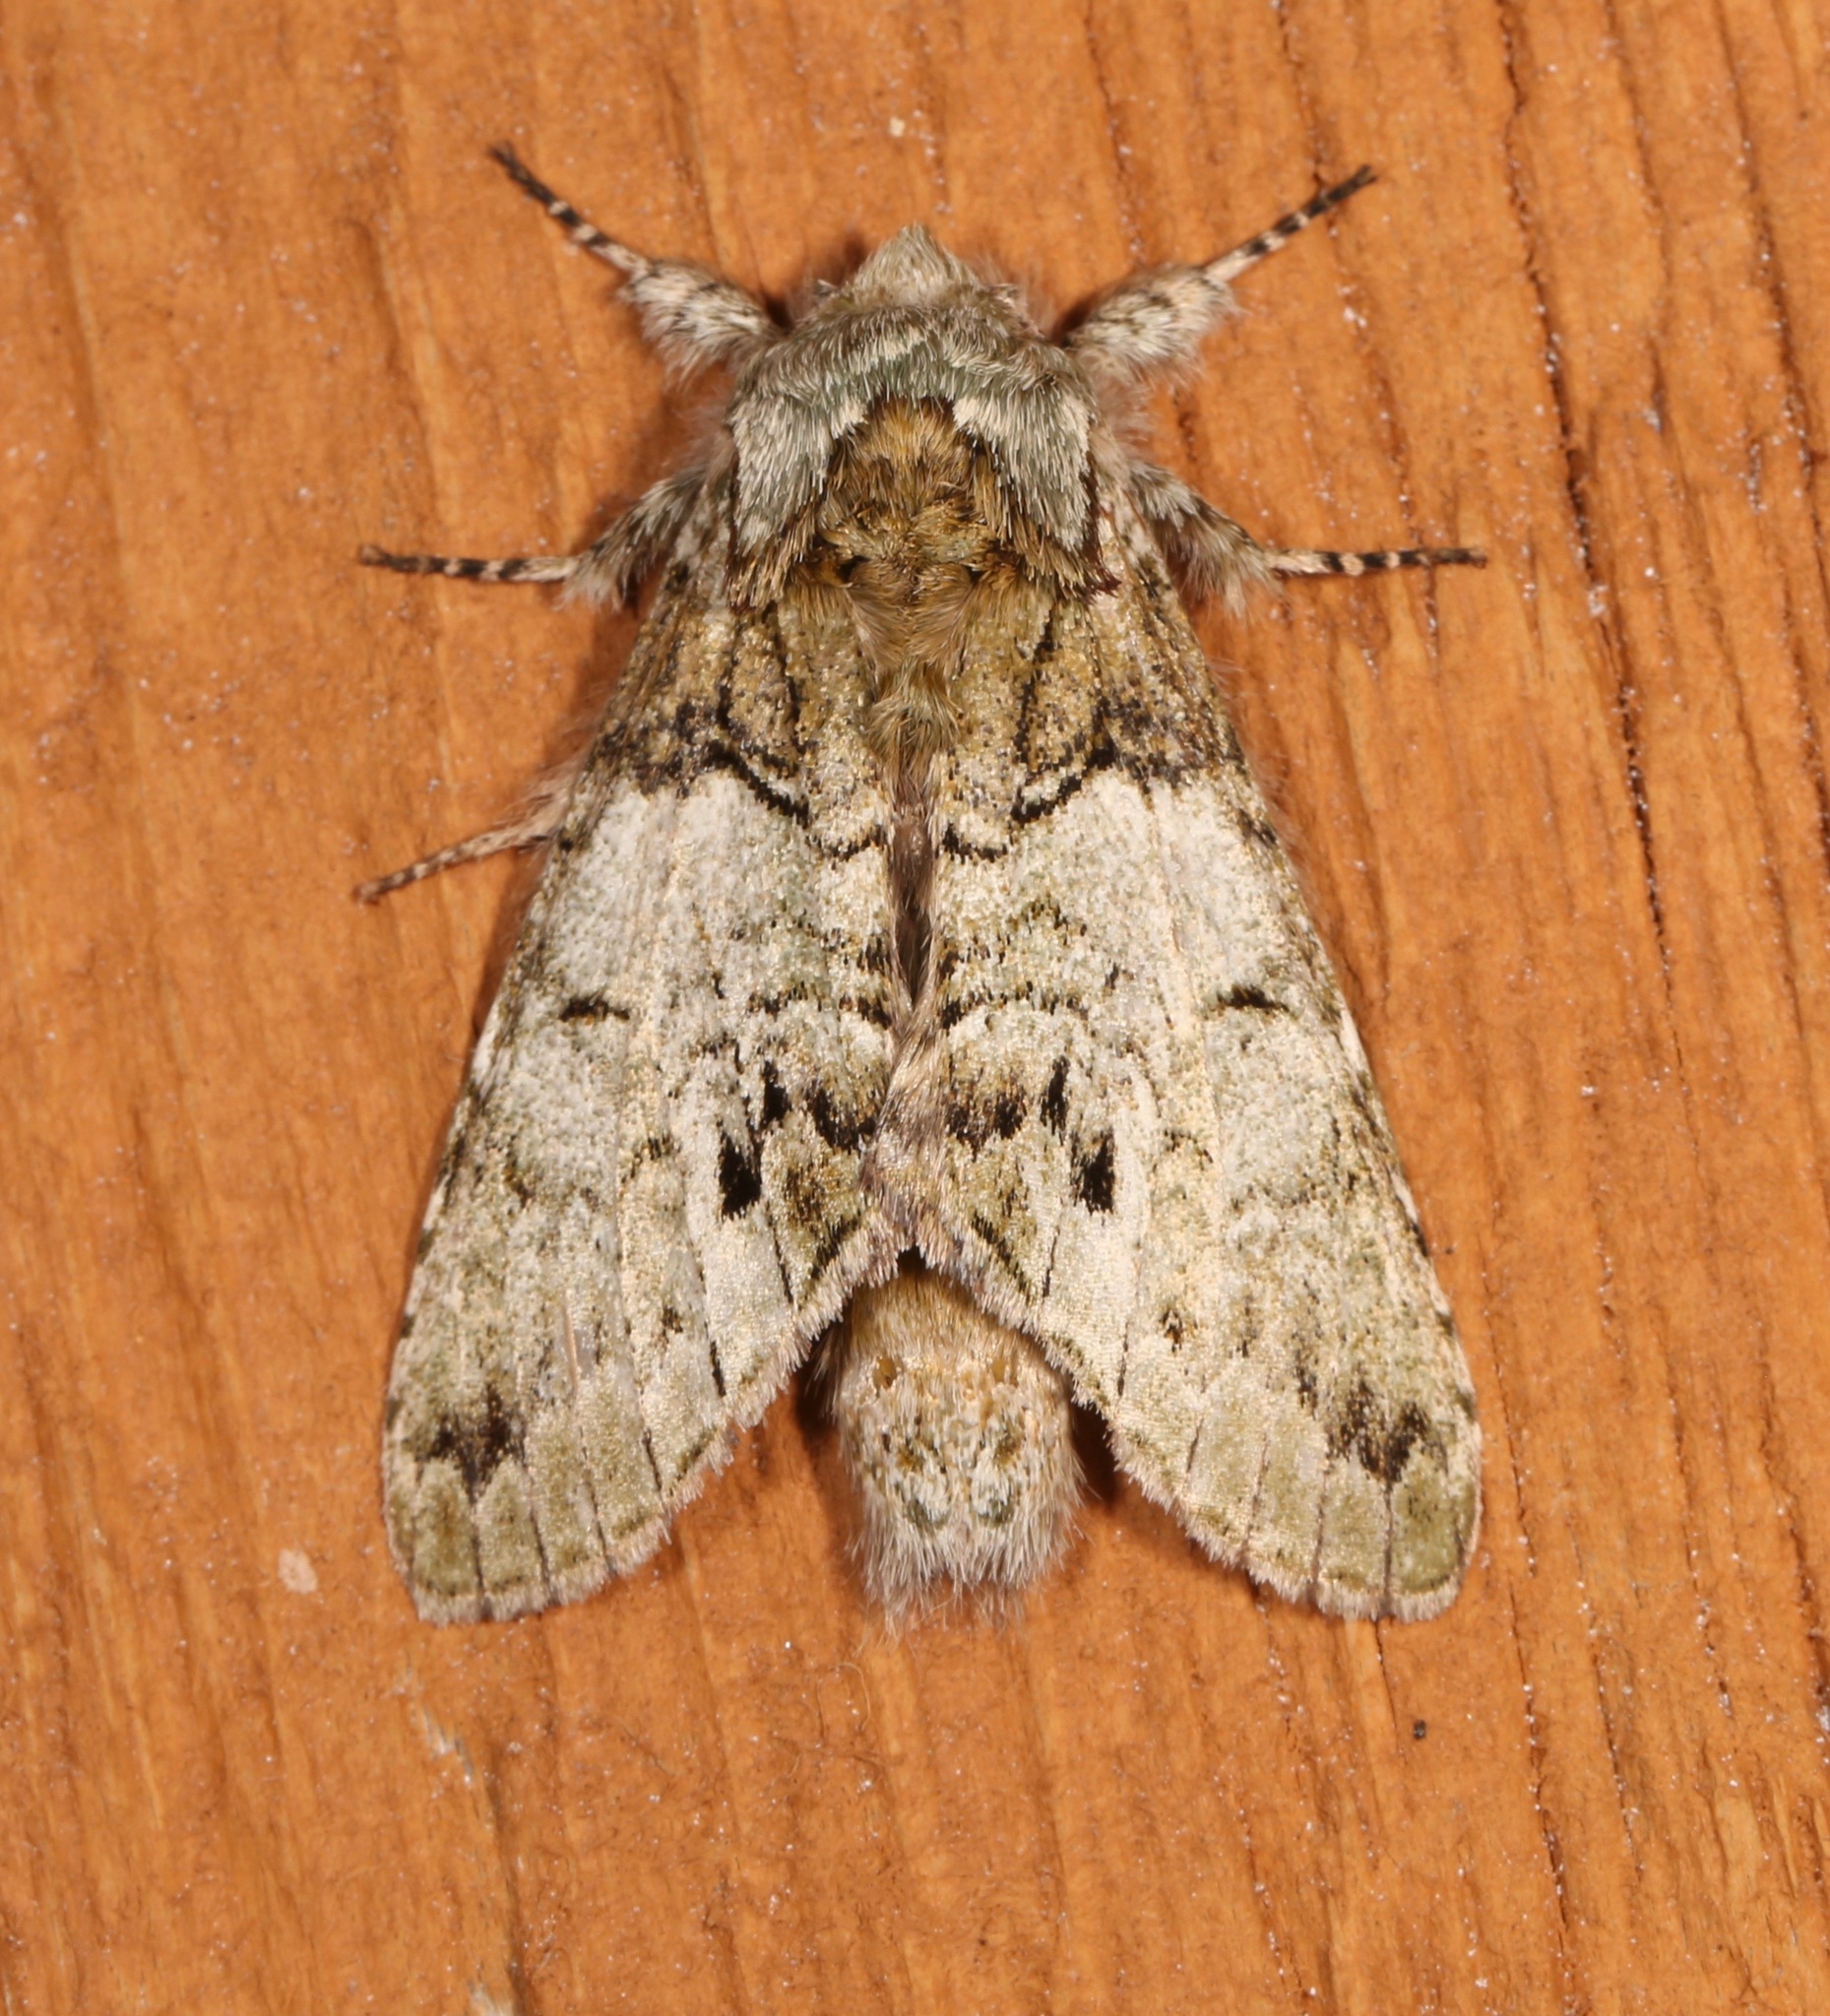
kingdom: Animalia
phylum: Arthropoda
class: Insecta
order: Lepidoptera
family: Notodontidae
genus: Macrurocampa
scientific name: Macrurocampa marthesia
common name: Mottled prominent
